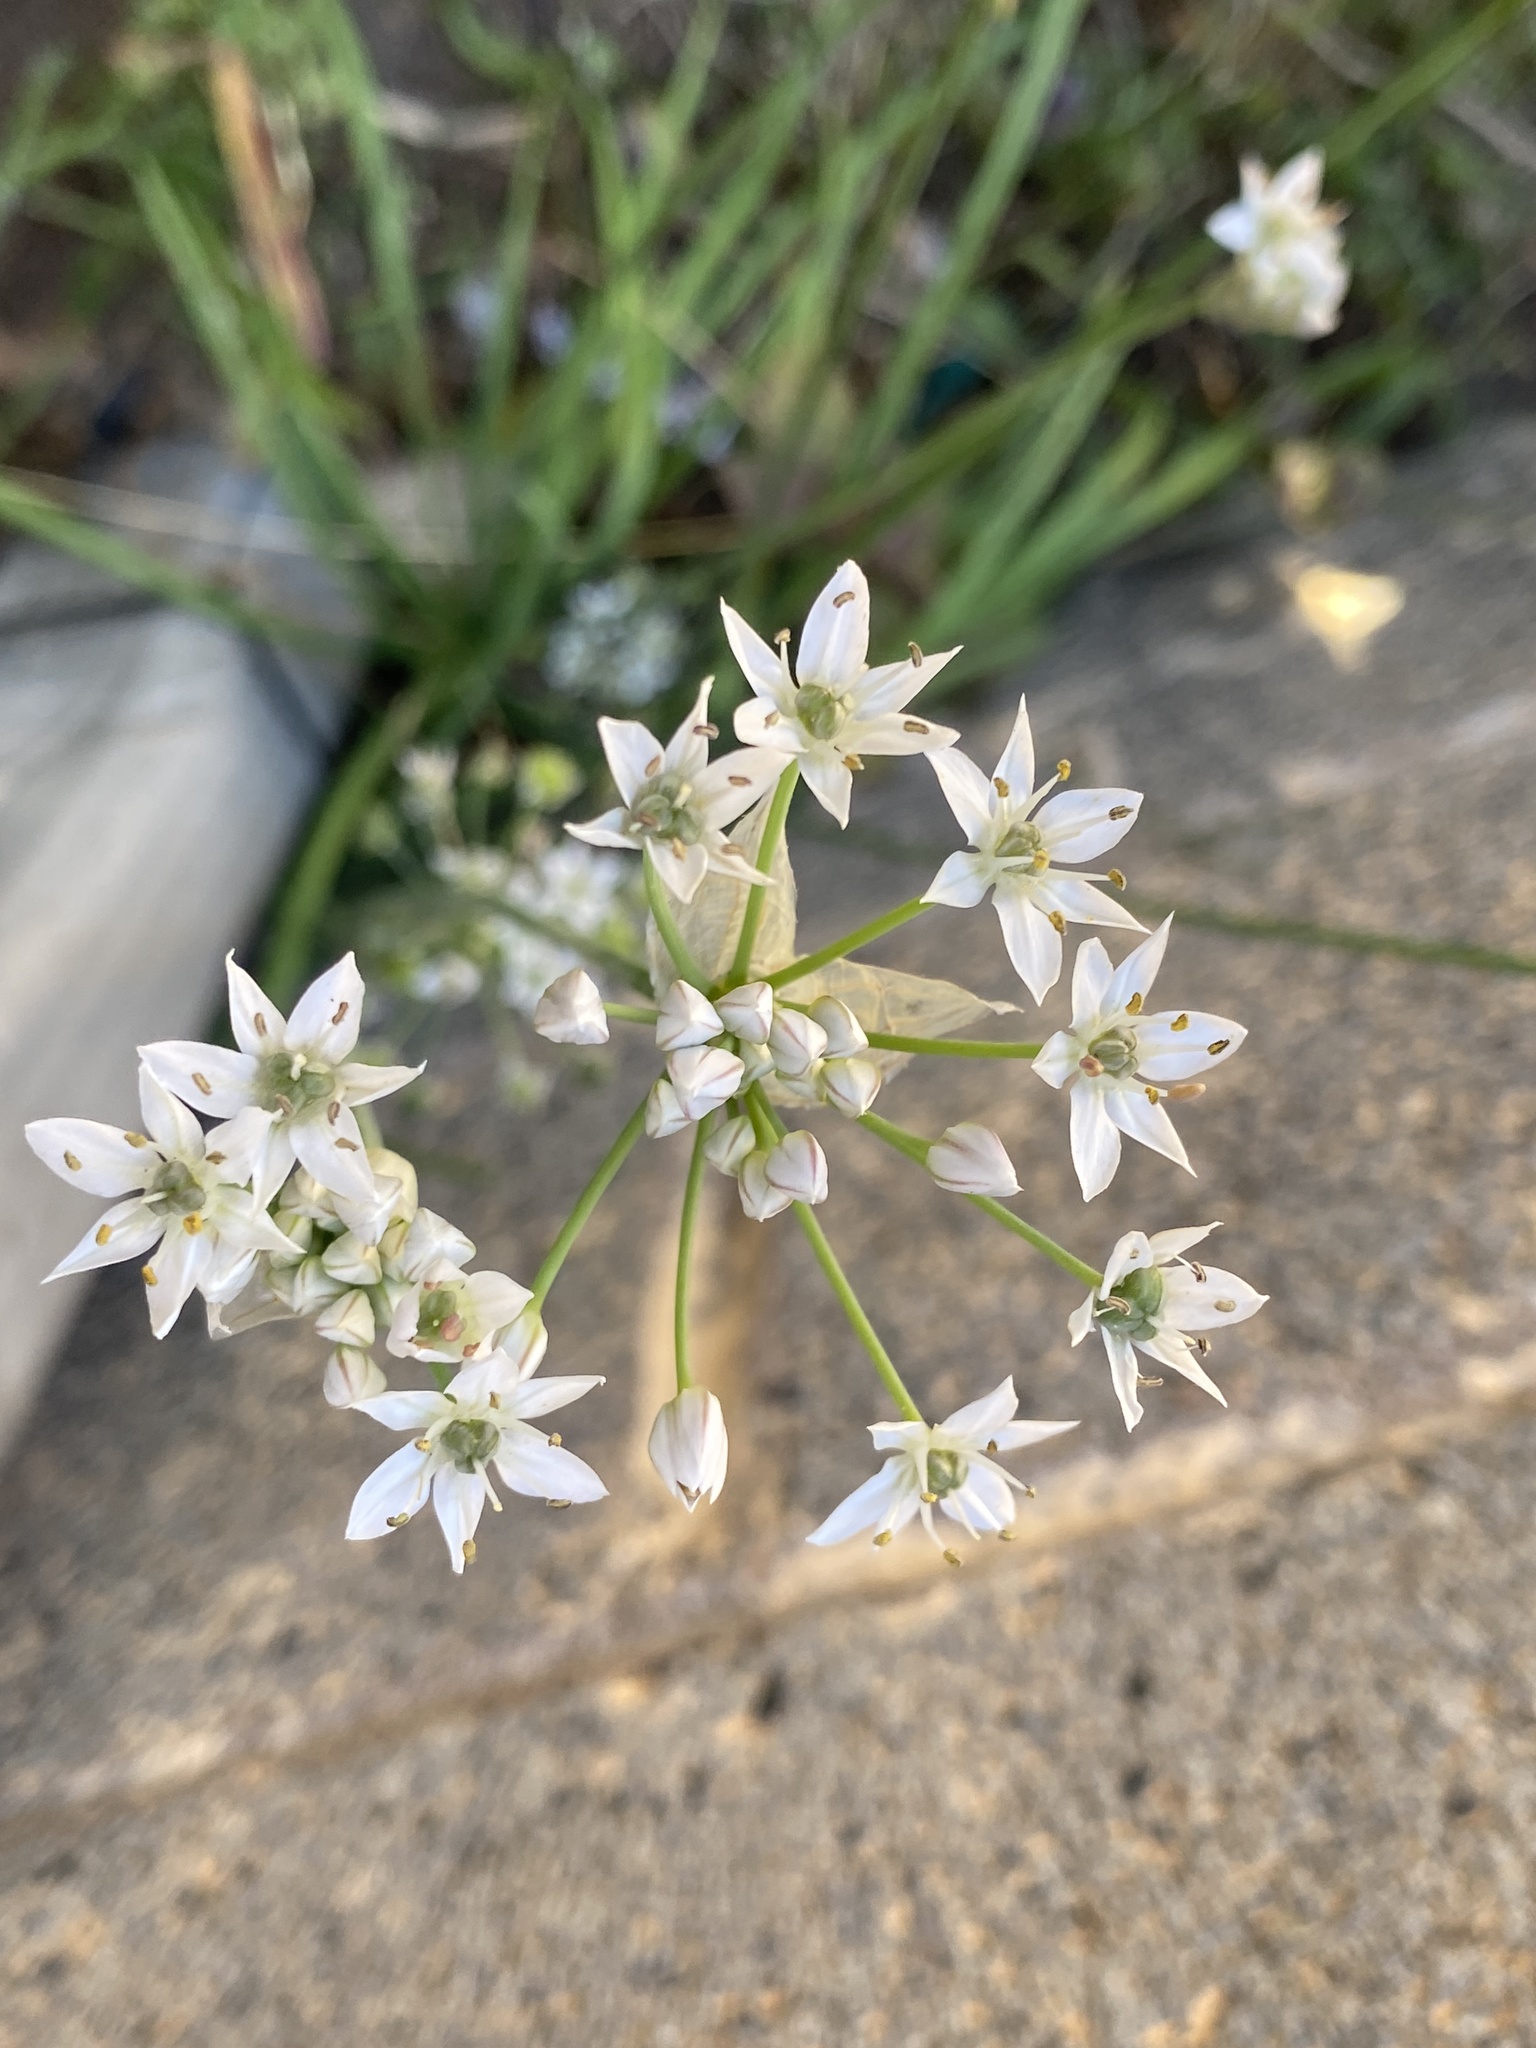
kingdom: Plantae
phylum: Tracheophyta
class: Liliopsida
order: Asparagales
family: Amaryllidaceae
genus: Allium
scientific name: Allium tuberosum
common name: Chinese chives
